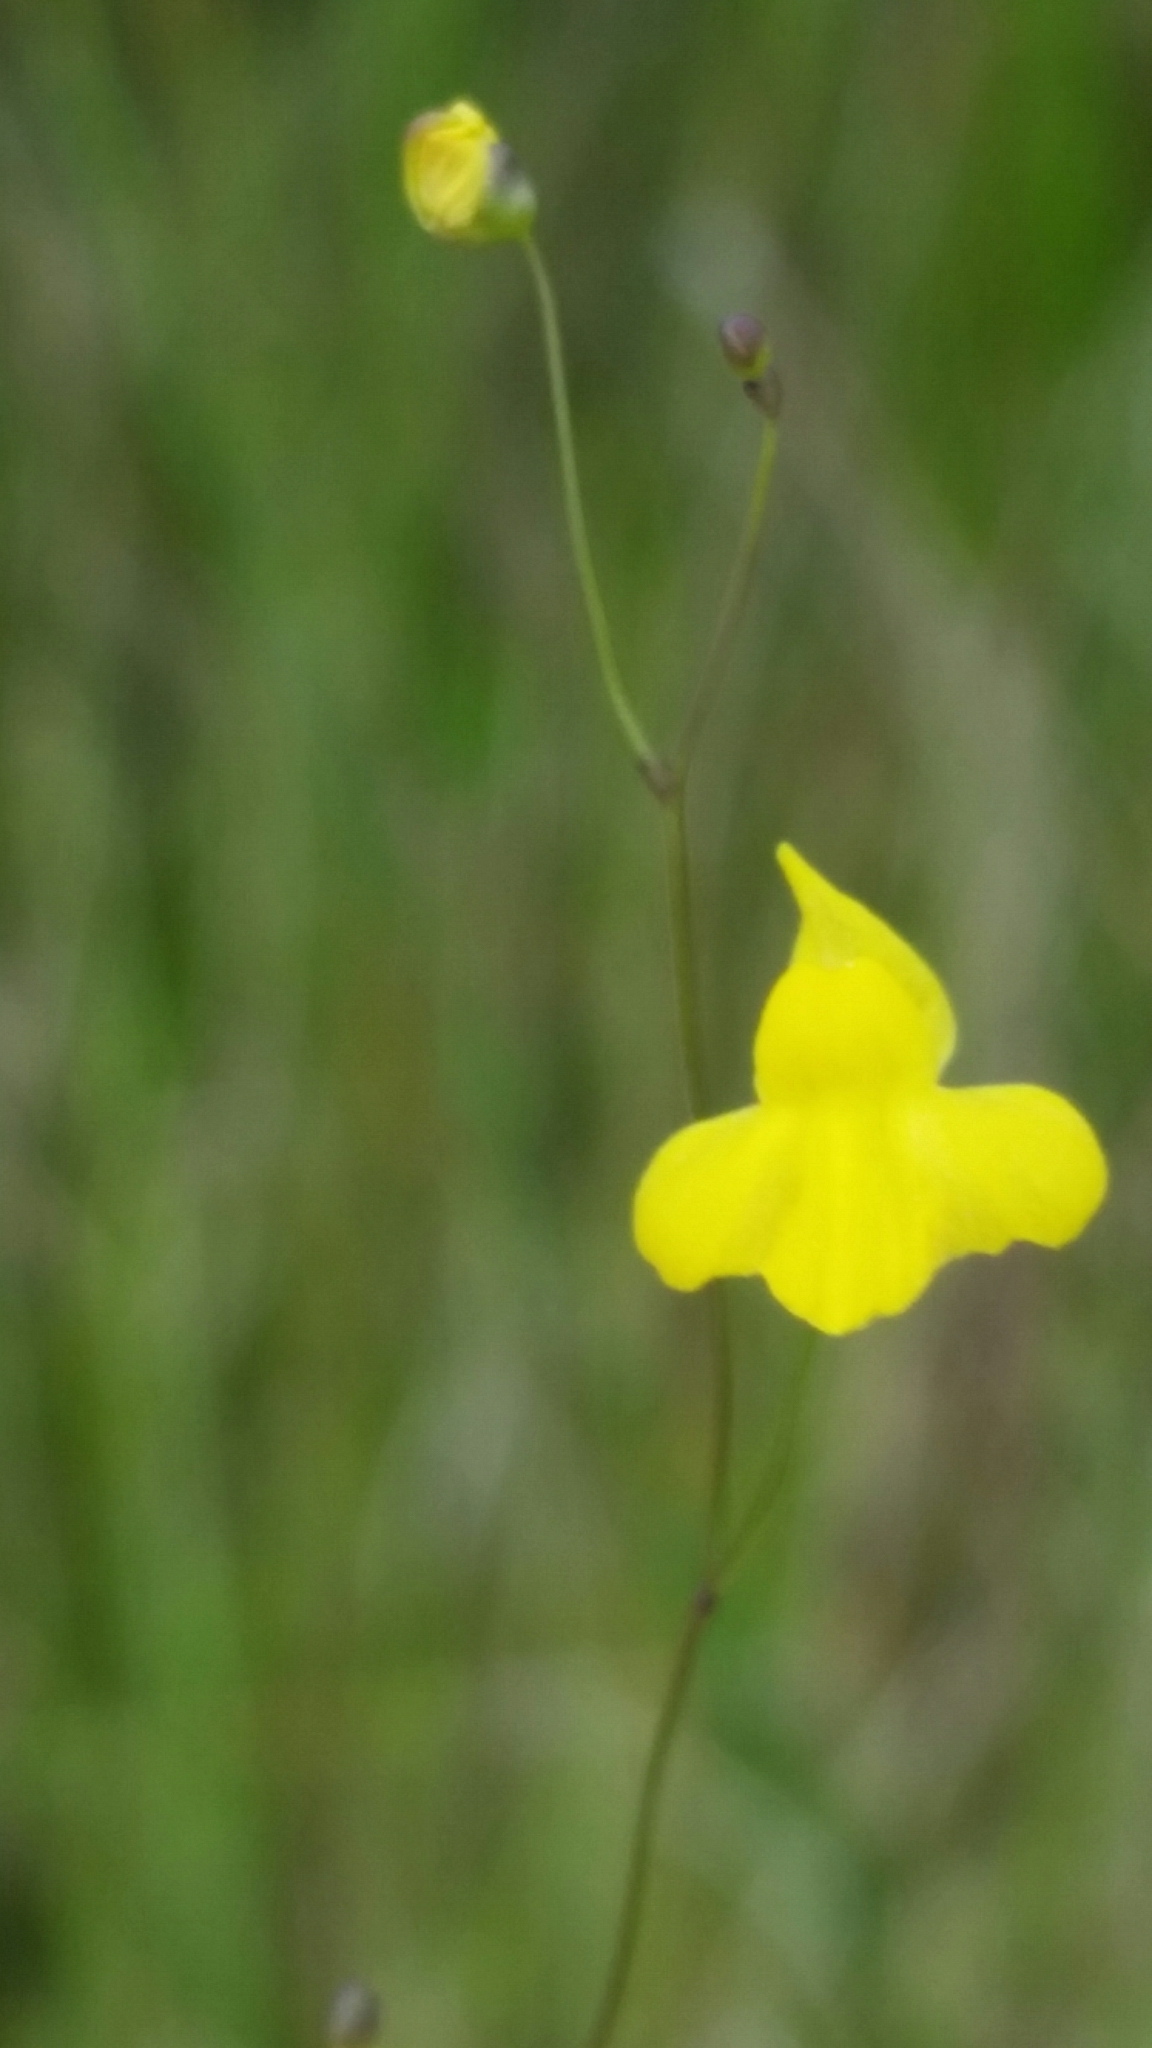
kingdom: Plantae
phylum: Tracheophyta
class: Magnoliopsida
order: Lamiales
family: Lentibulariaceae
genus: Utricularia
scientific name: Utricularia subulata
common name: Tiny bladderwort
